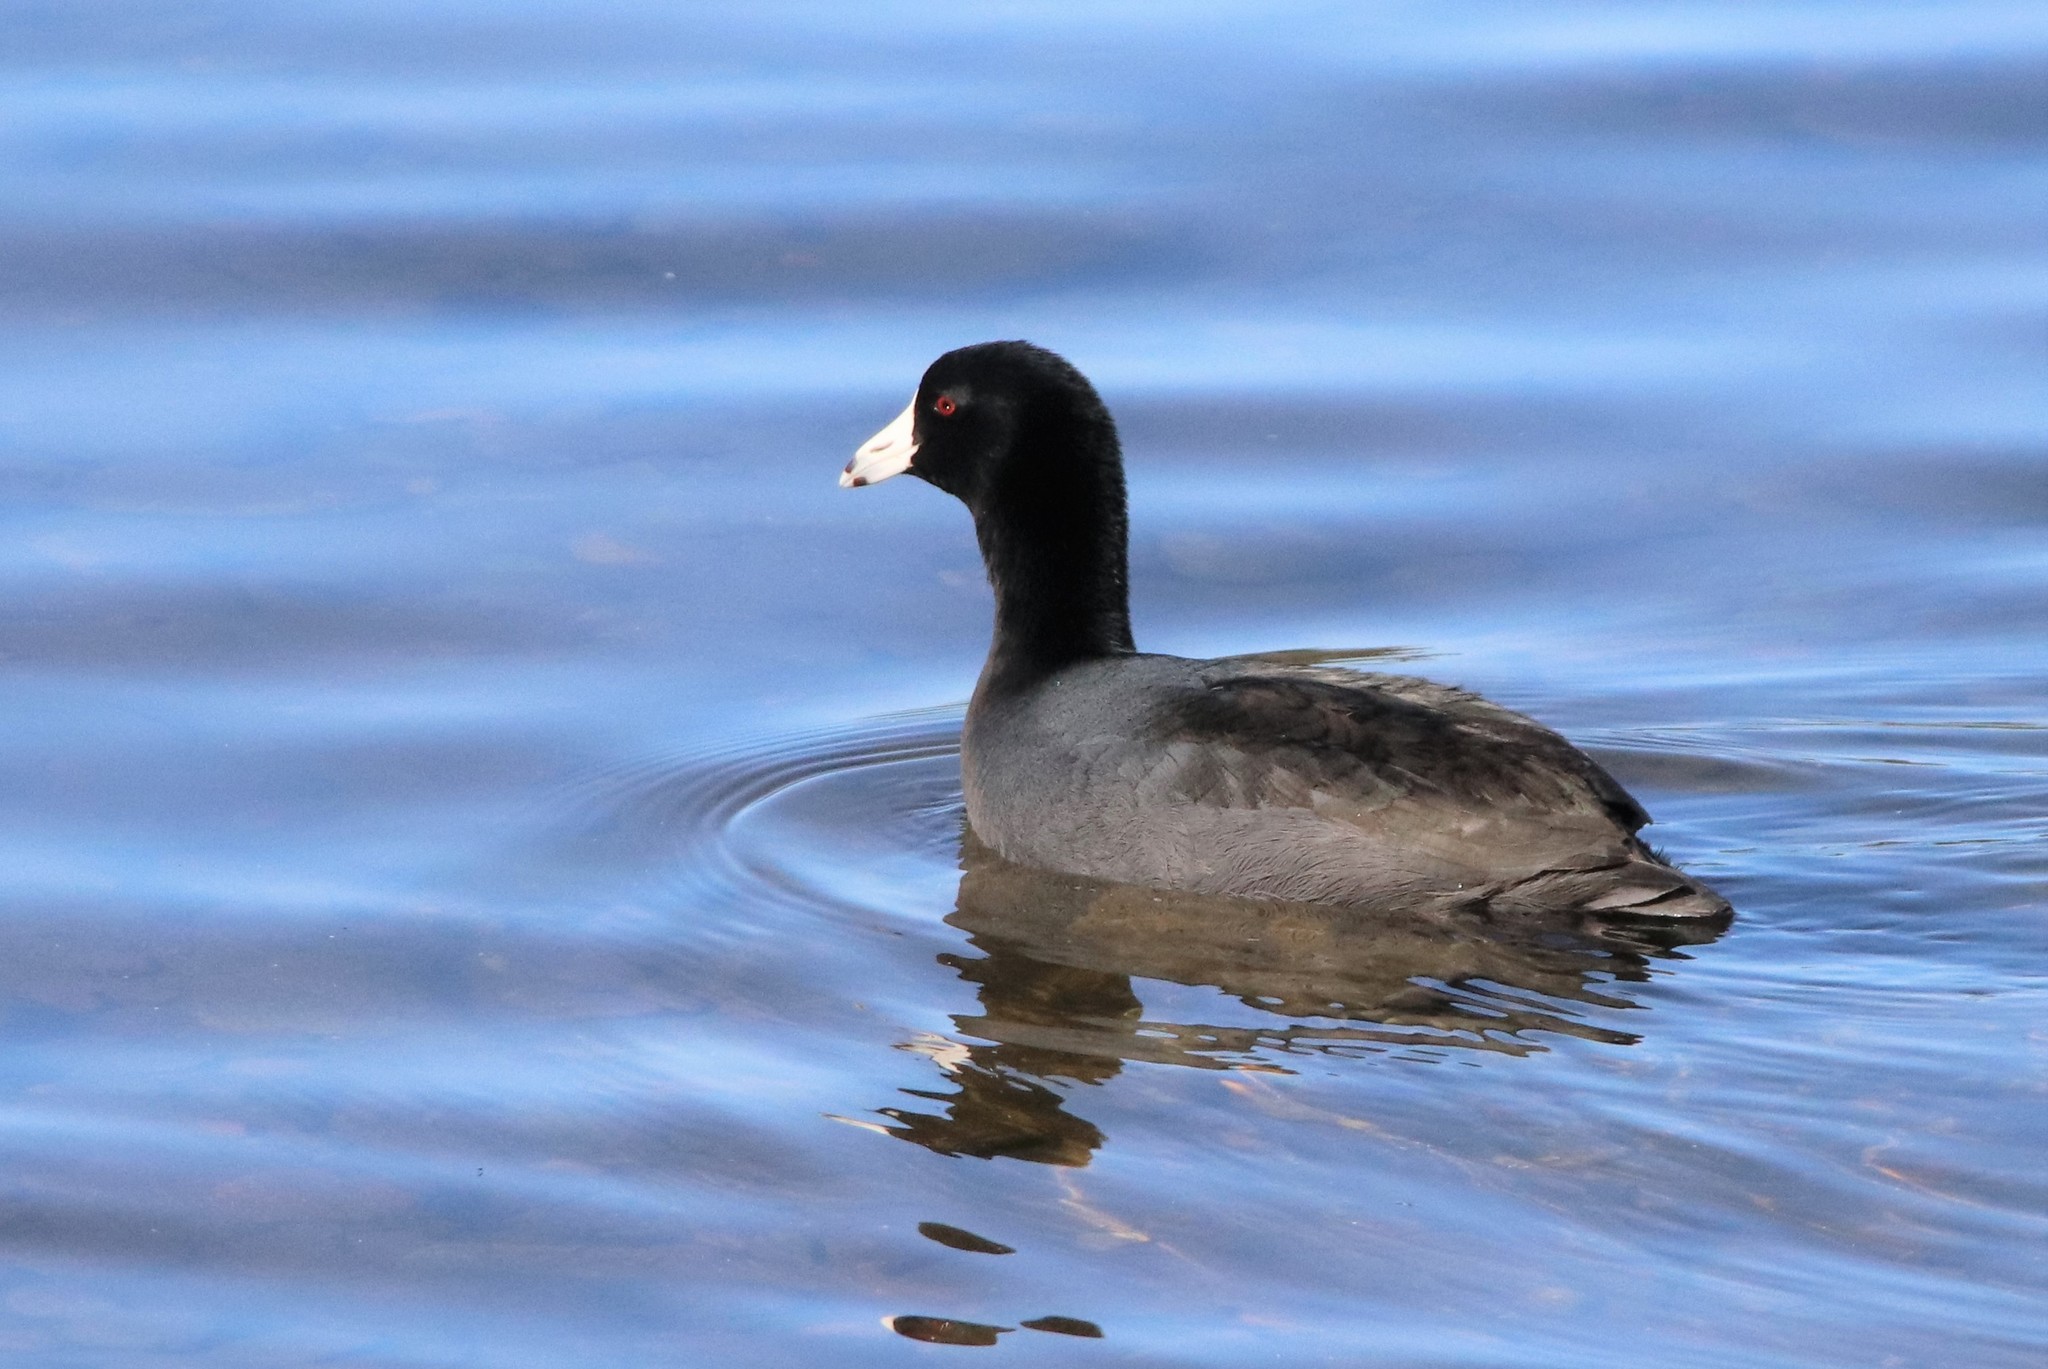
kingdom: Animalia
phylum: Chordata
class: Aves
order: Gruiformes
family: Rallidae
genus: Fulica
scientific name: Fulica americana
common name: American coot
